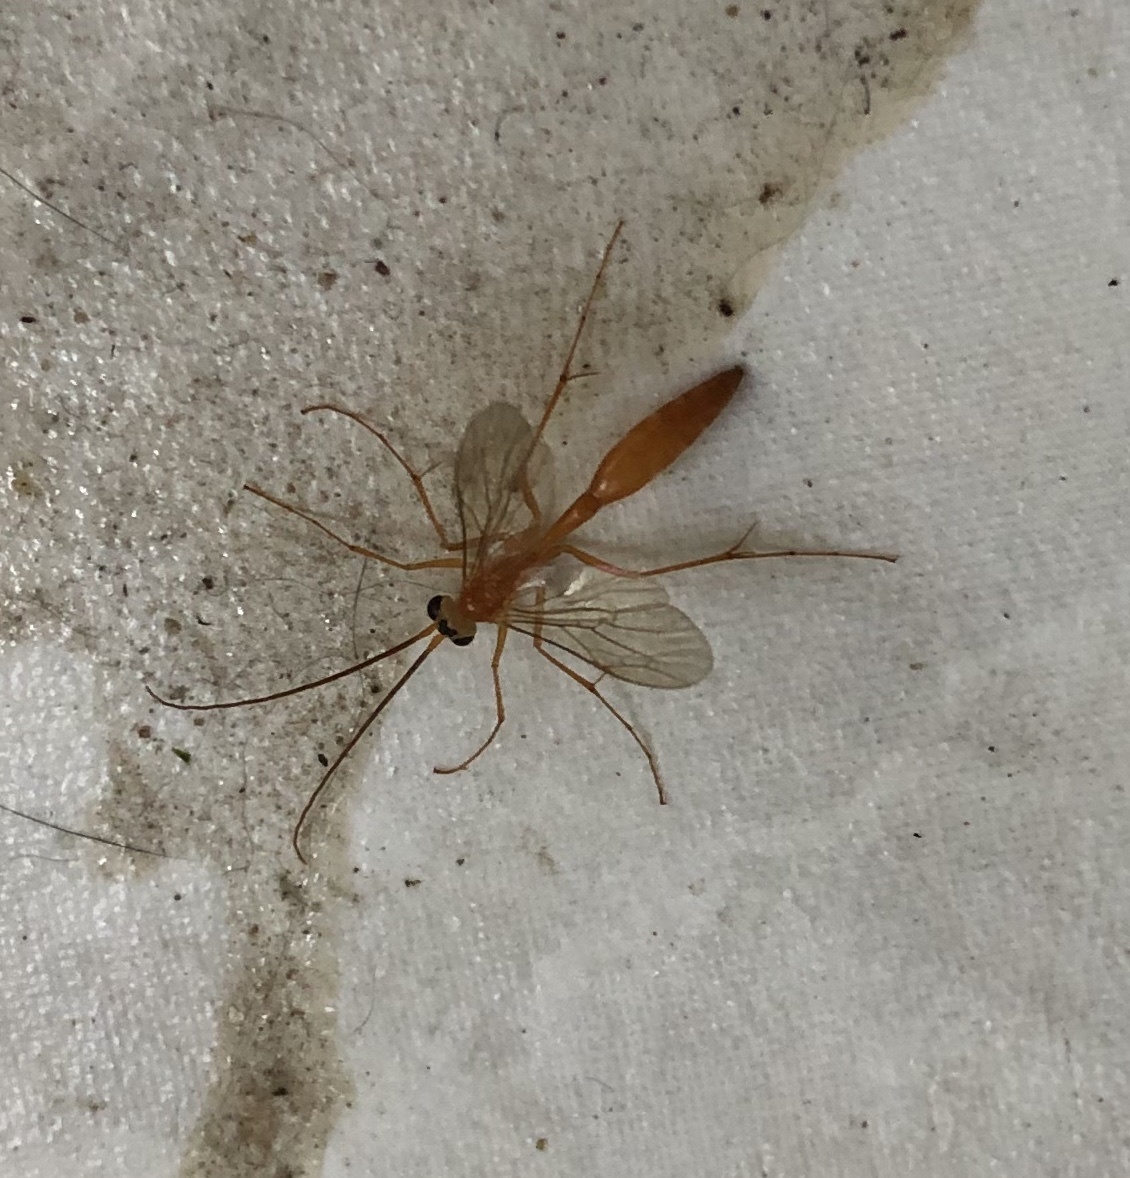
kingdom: Animalia
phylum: Arthropoda
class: Insecta
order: Hymenoptera
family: Rhopalosomatidae
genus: Rhopalosoma
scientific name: Rhopalosoma nearcticum
